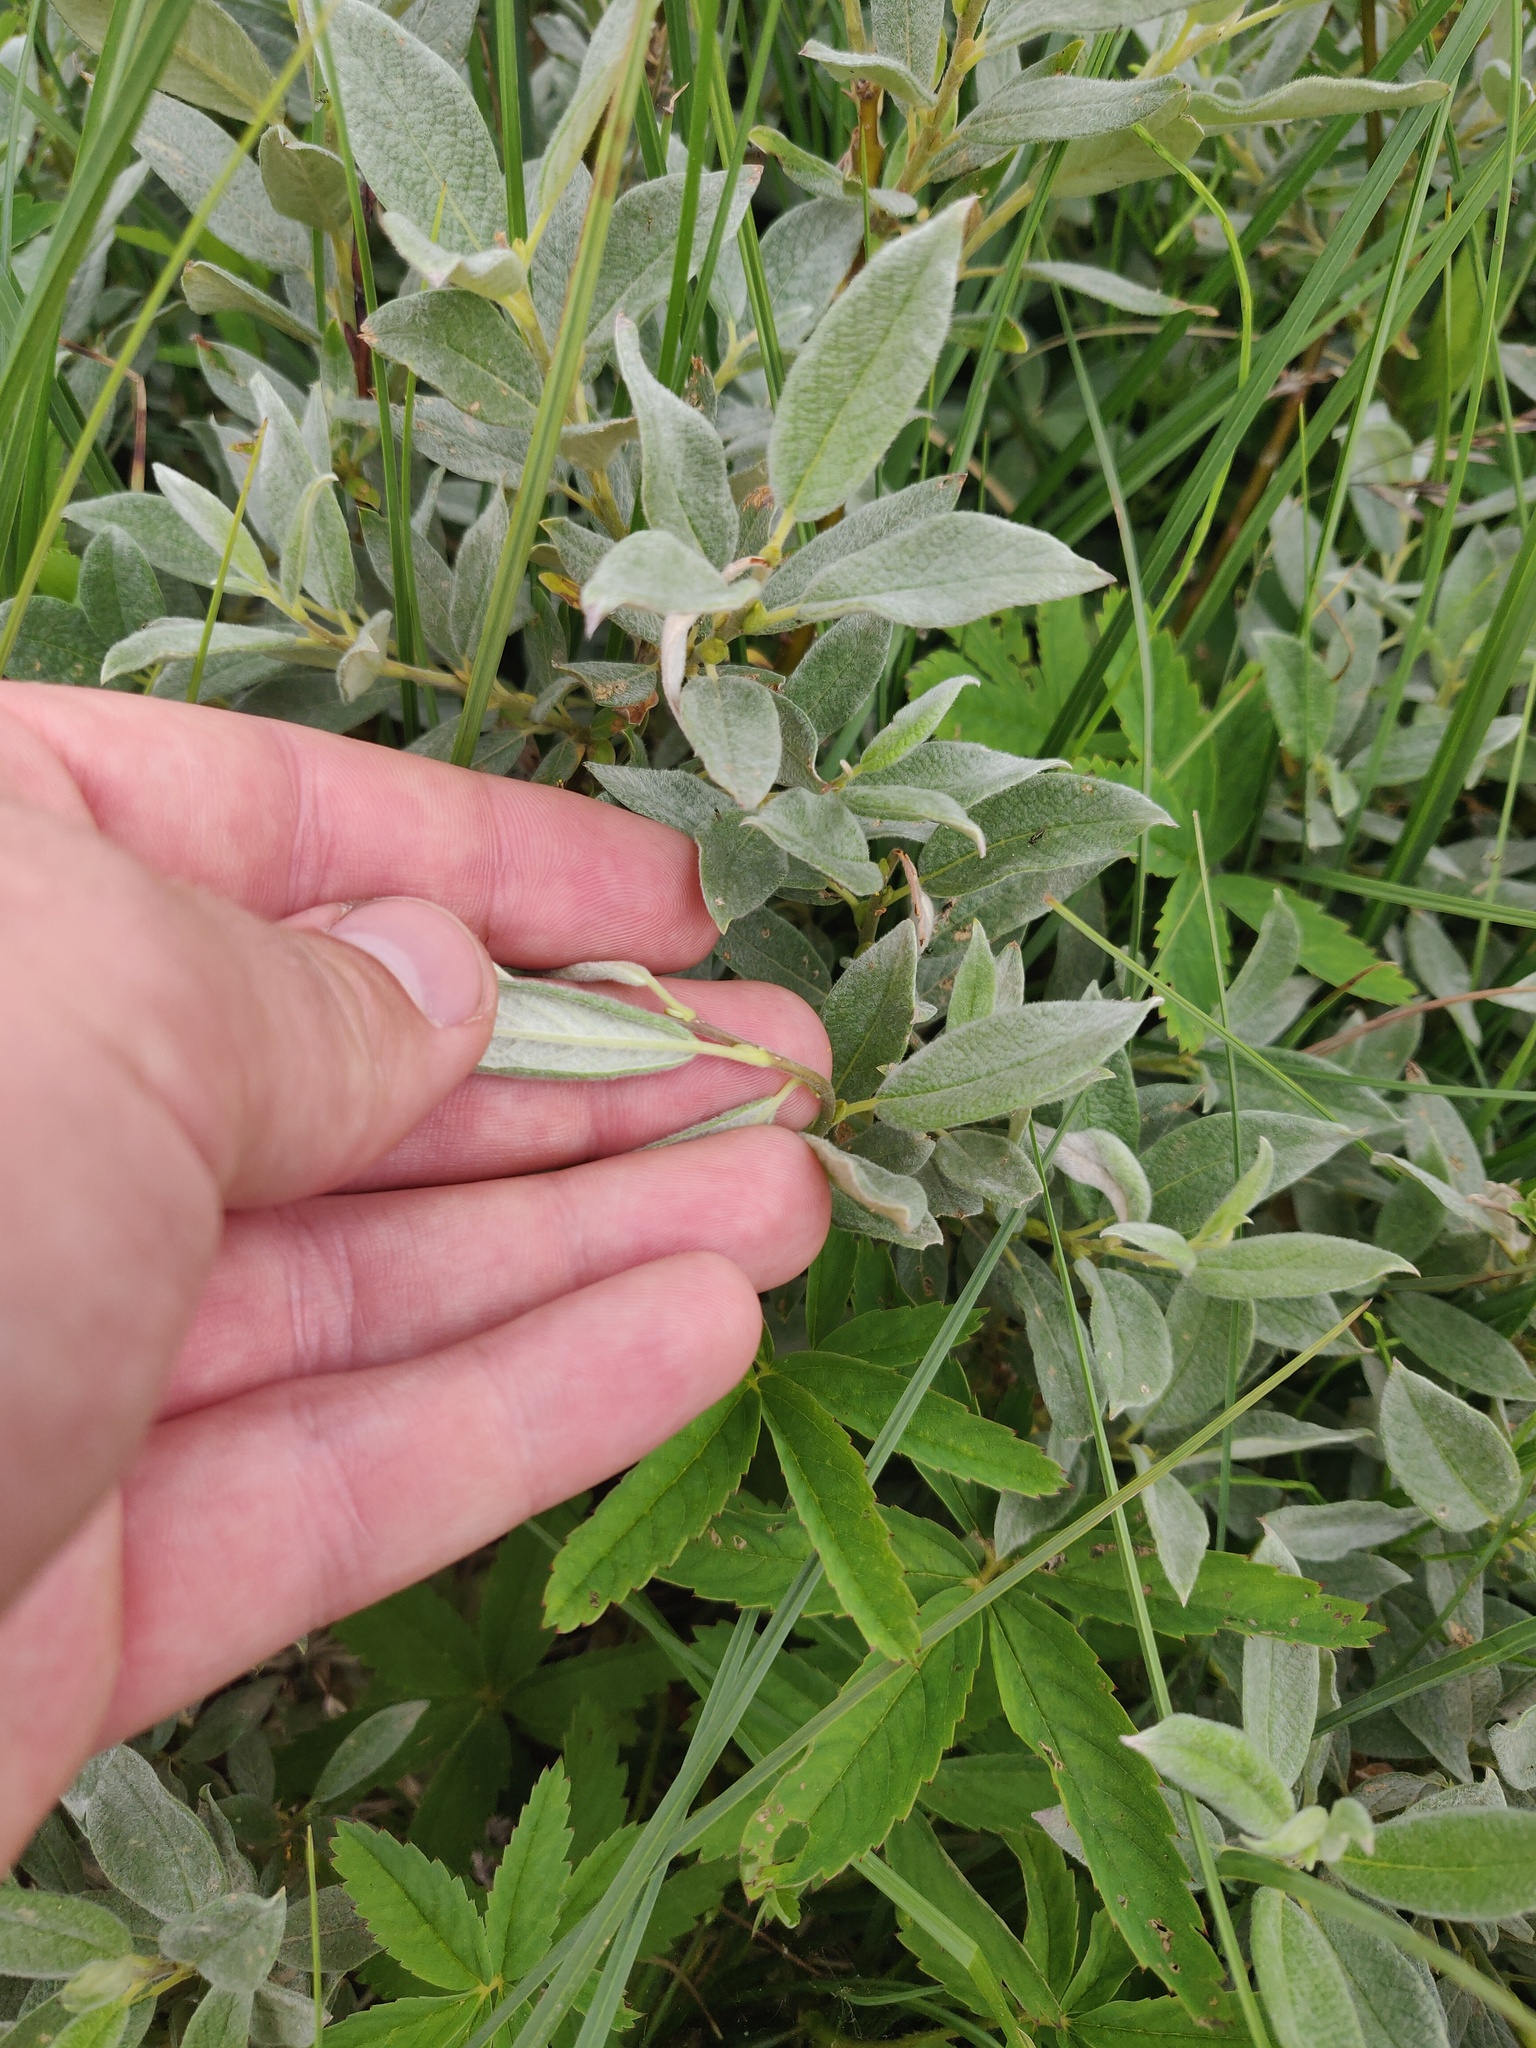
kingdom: Plantae
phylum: Tracheophyta
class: Magnoliopsida
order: Malpighiales
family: Salicaceae
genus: Salix
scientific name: Salix lapponum
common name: Downy willow
